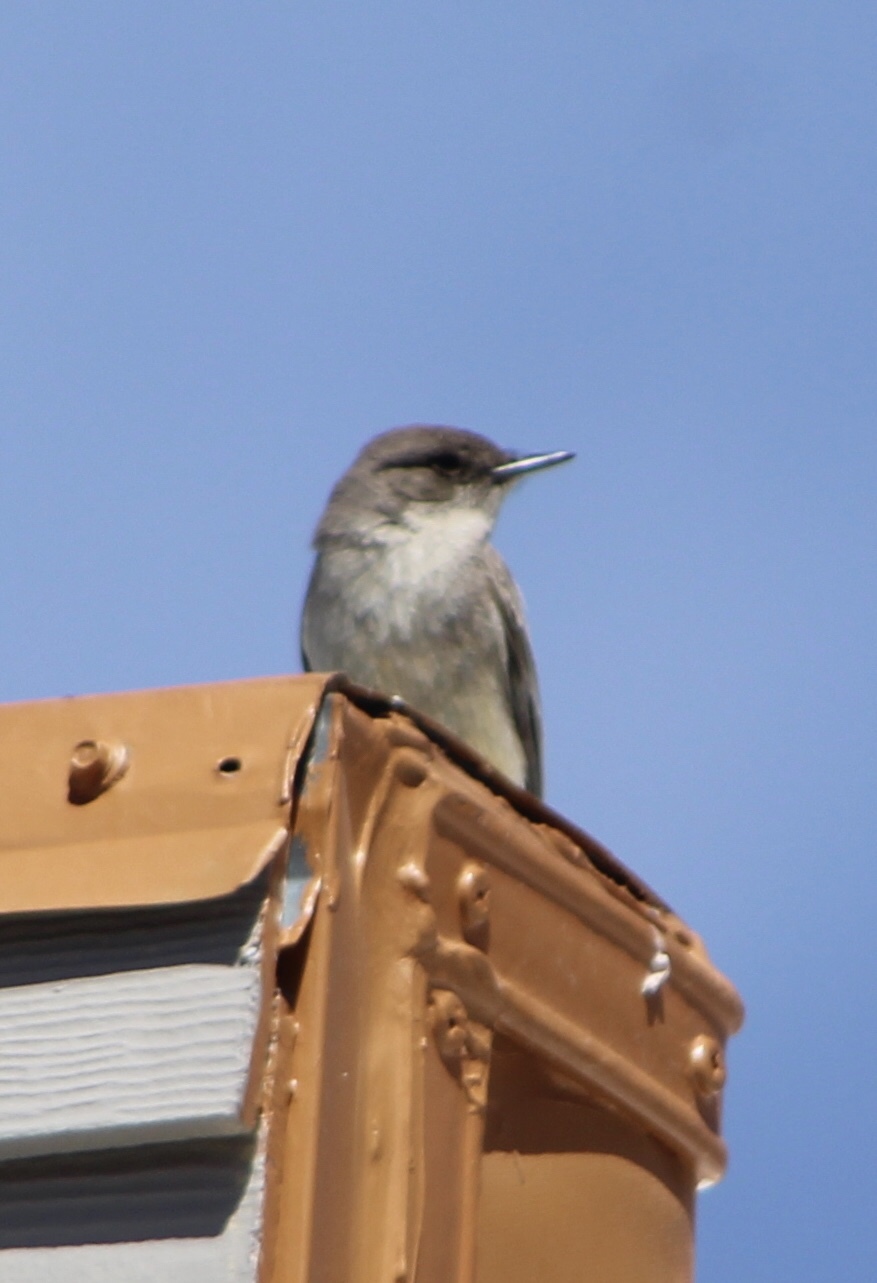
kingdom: Animalia
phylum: Chordata
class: Aves
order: Passeriformes
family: Tyrannidae
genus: Sayornis
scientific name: Sayornis saya
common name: Say's phoebe
